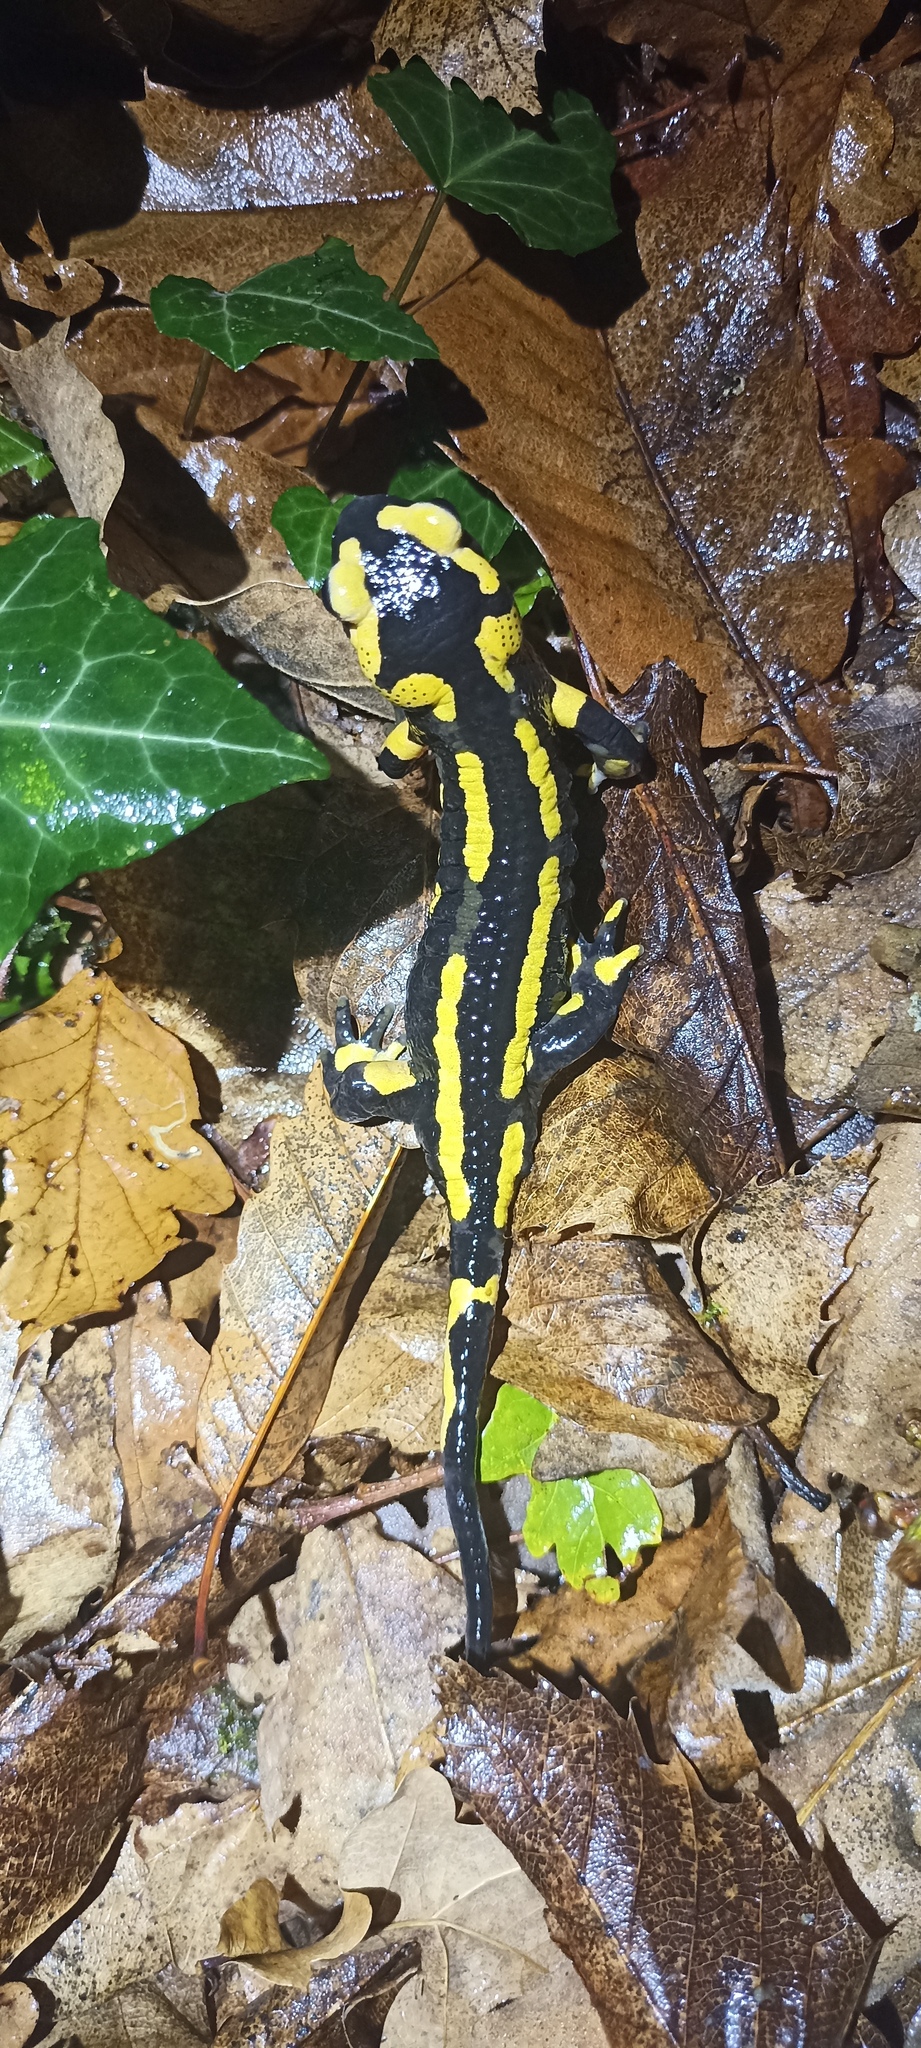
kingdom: Animalia
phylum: Chordata
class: Amphibia
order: Caudata
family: Salamandridae
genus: Salamandra
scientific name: Salamandra salamandra
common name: Fire salamander
